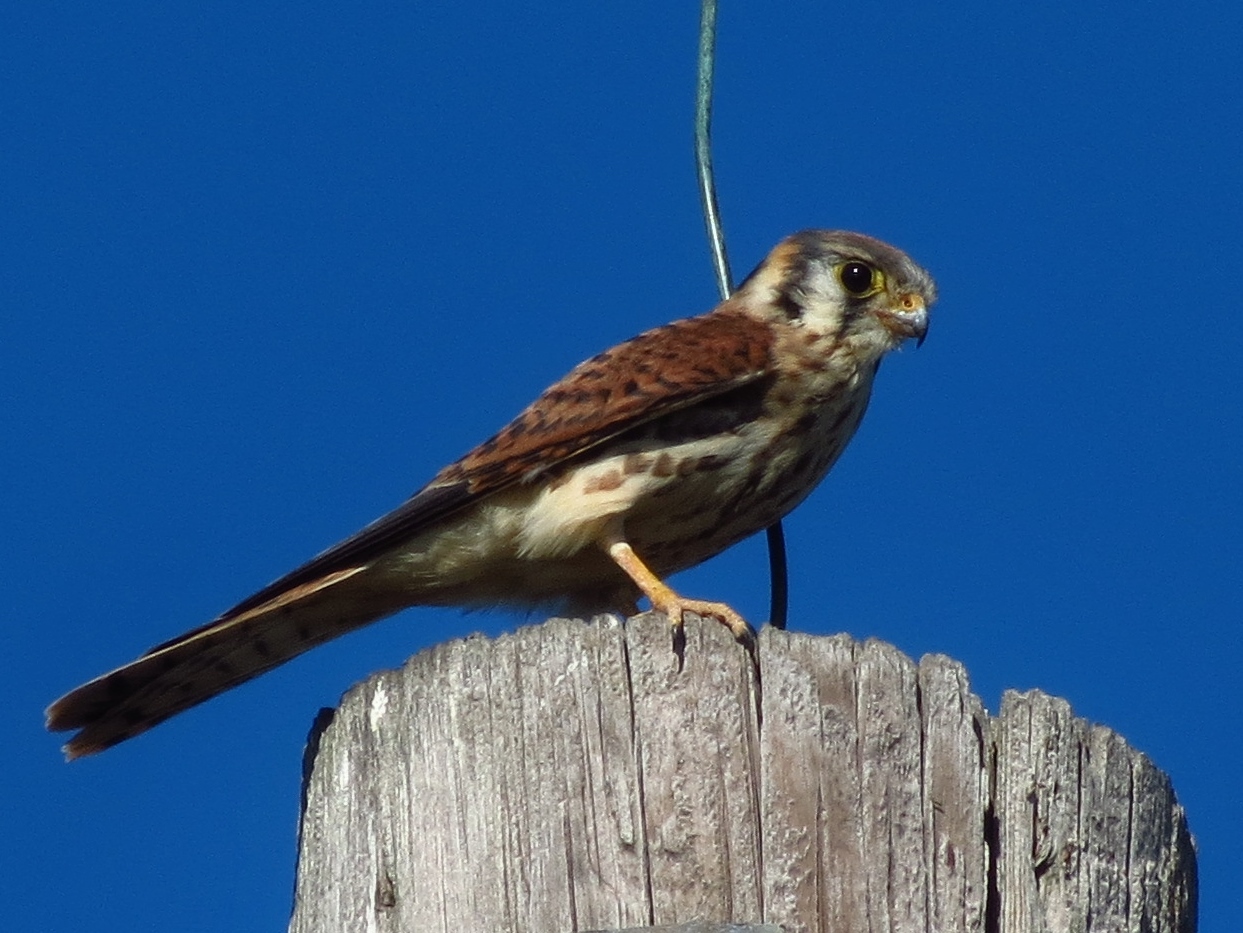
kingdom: Animalia
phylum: Chordata
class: Aves
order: Falconiformes
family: Falconidae
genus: Falco
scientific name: Falco sparverius
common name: American kestrel
